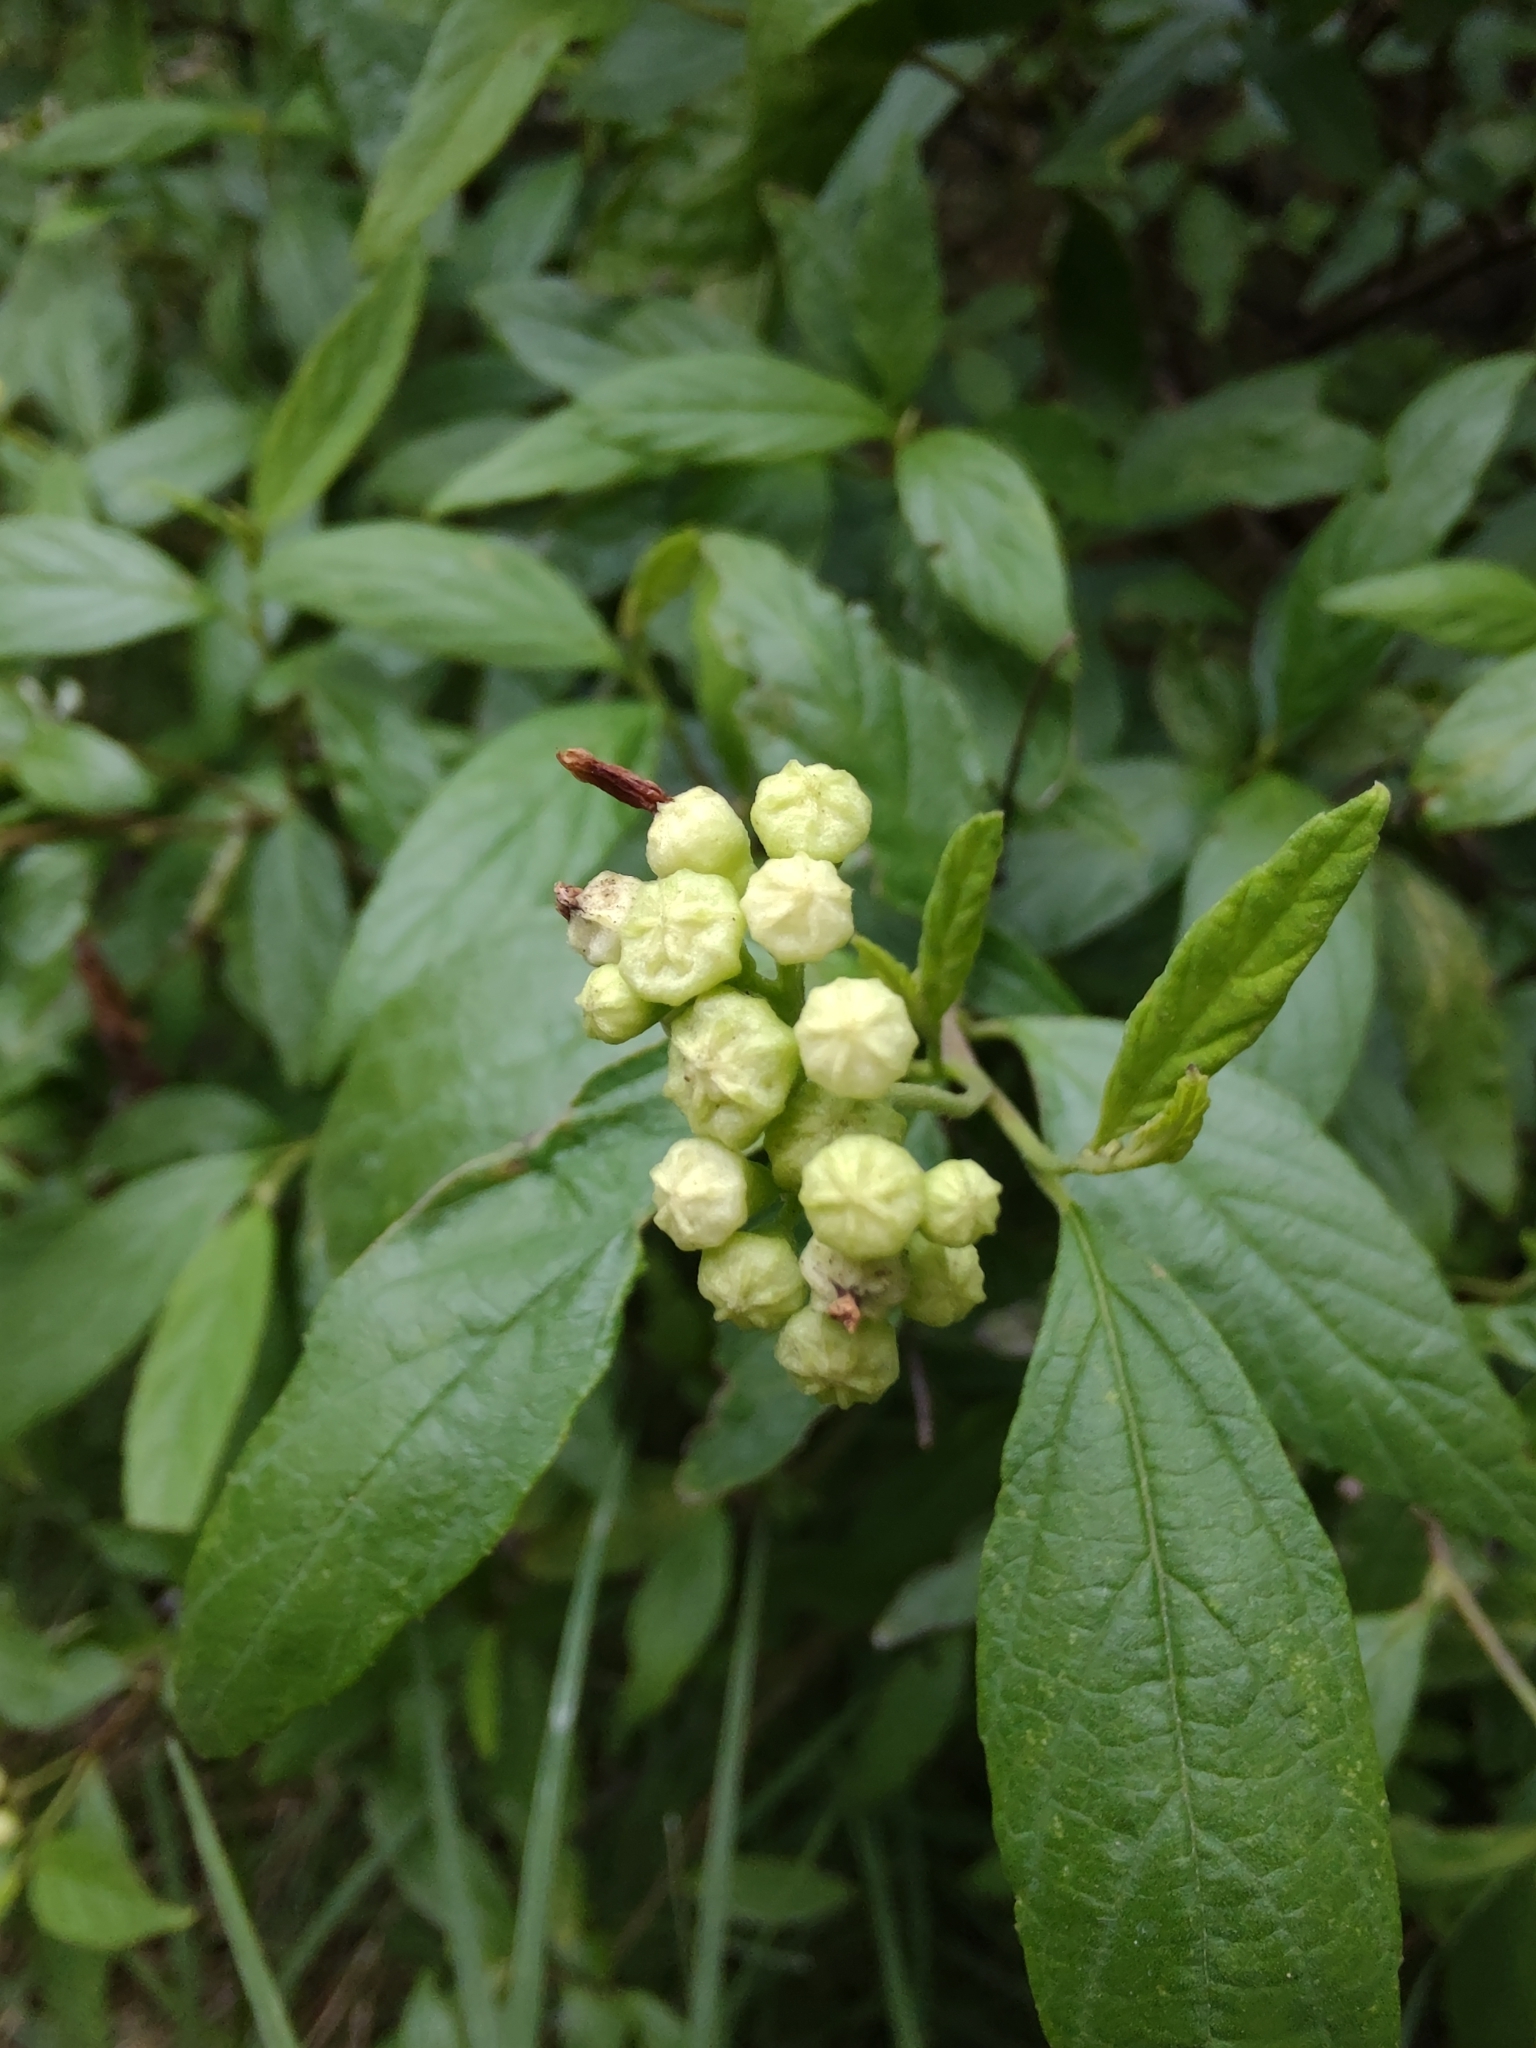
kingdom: Plantae
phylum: Tracheophyta
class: Magnoliopsida
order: Boraginales
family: Cordiaceae
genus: Varronia
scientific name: Varronia dichotoma
